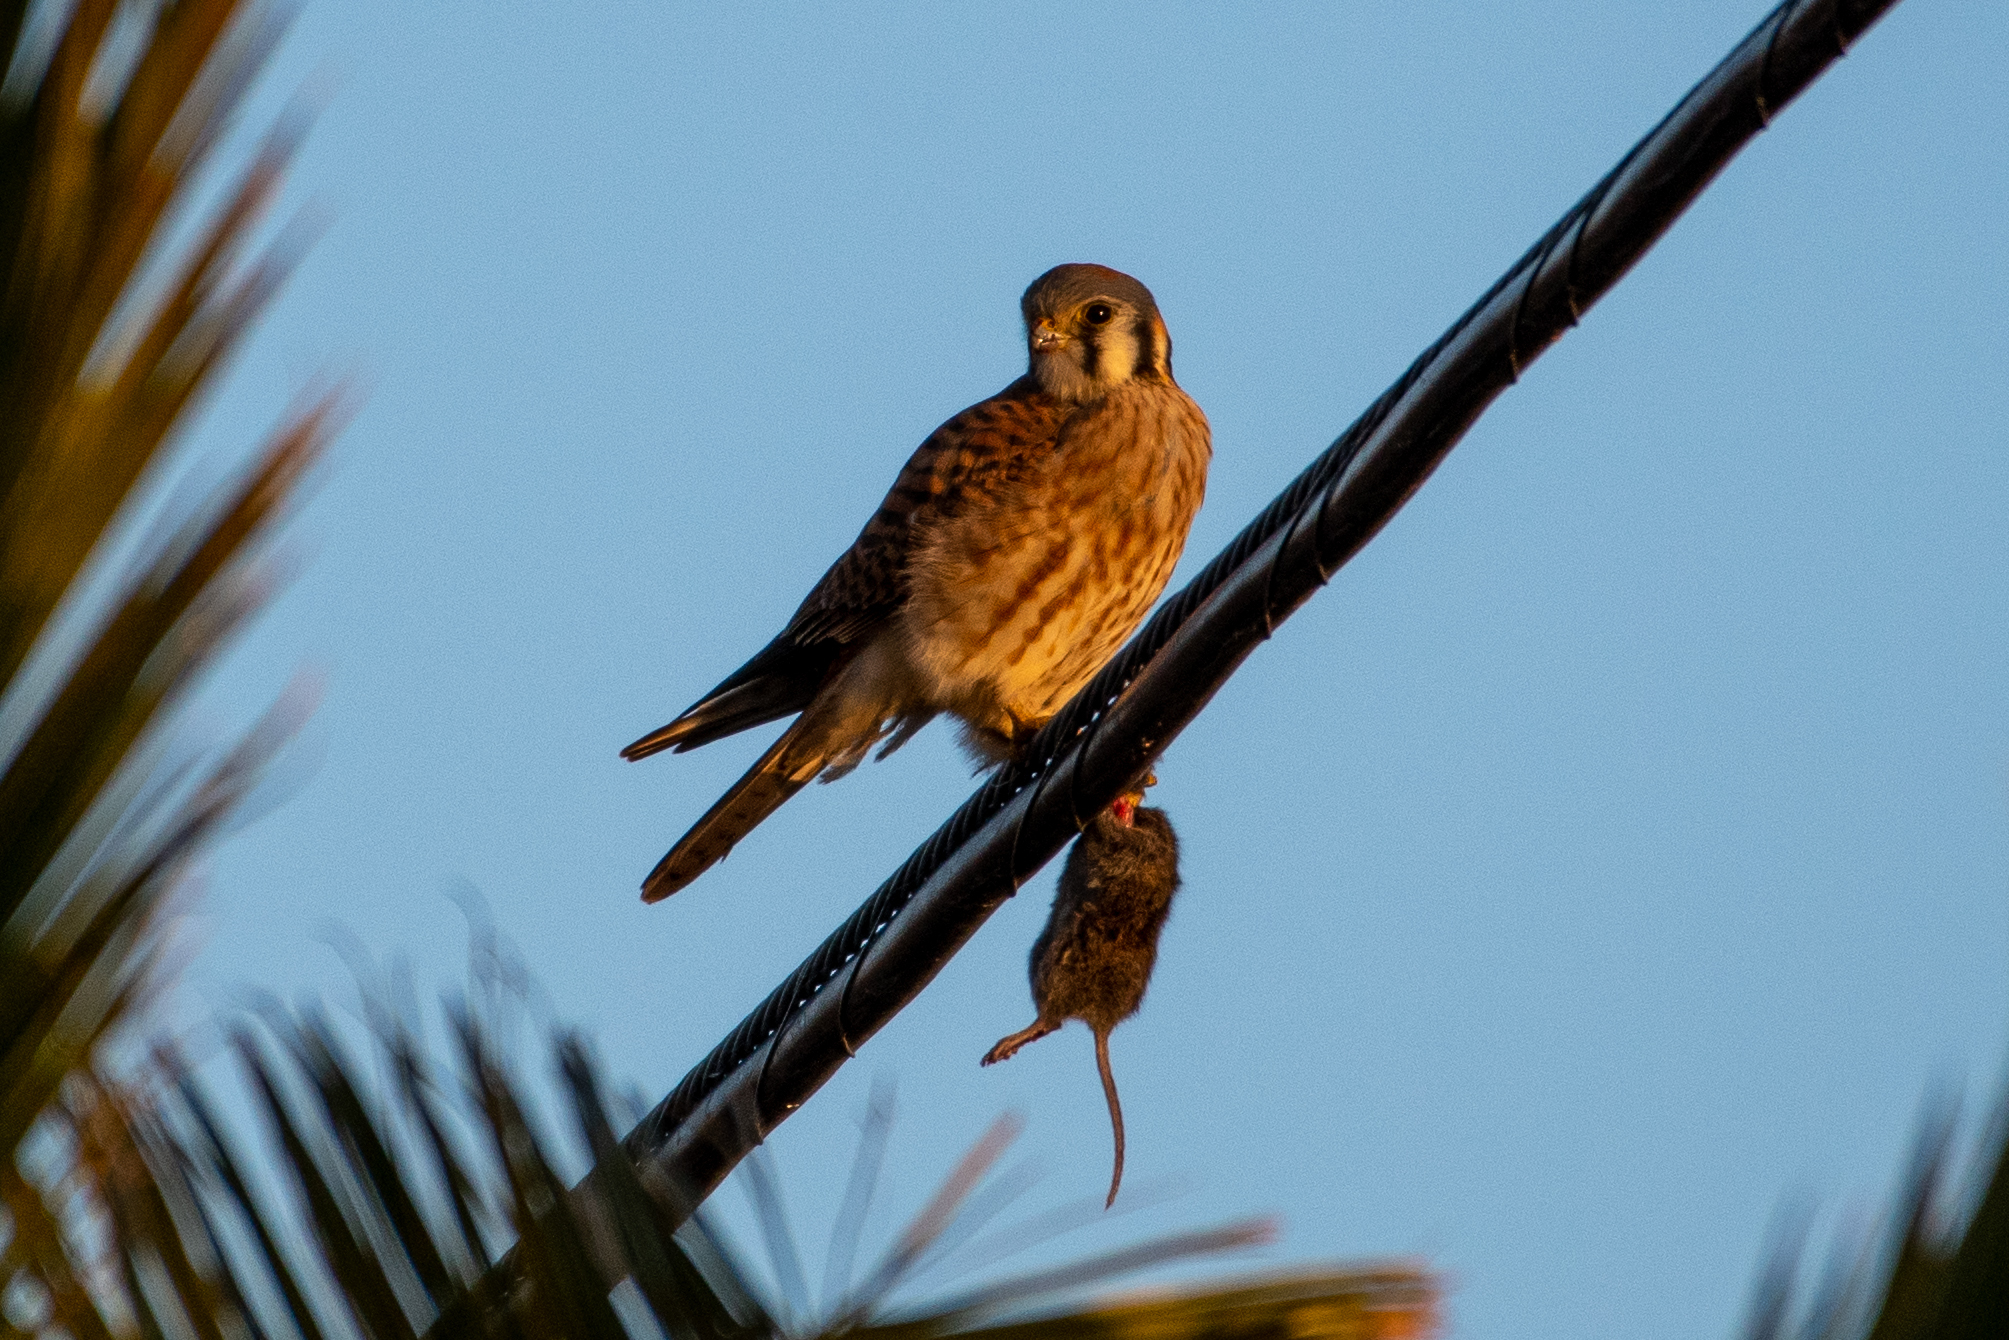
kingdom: Animalia
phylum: Chordata
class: Aves
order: Falconiformes
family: Falconidae
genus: Falco
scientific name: Falco sparverius
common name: American kestrel
